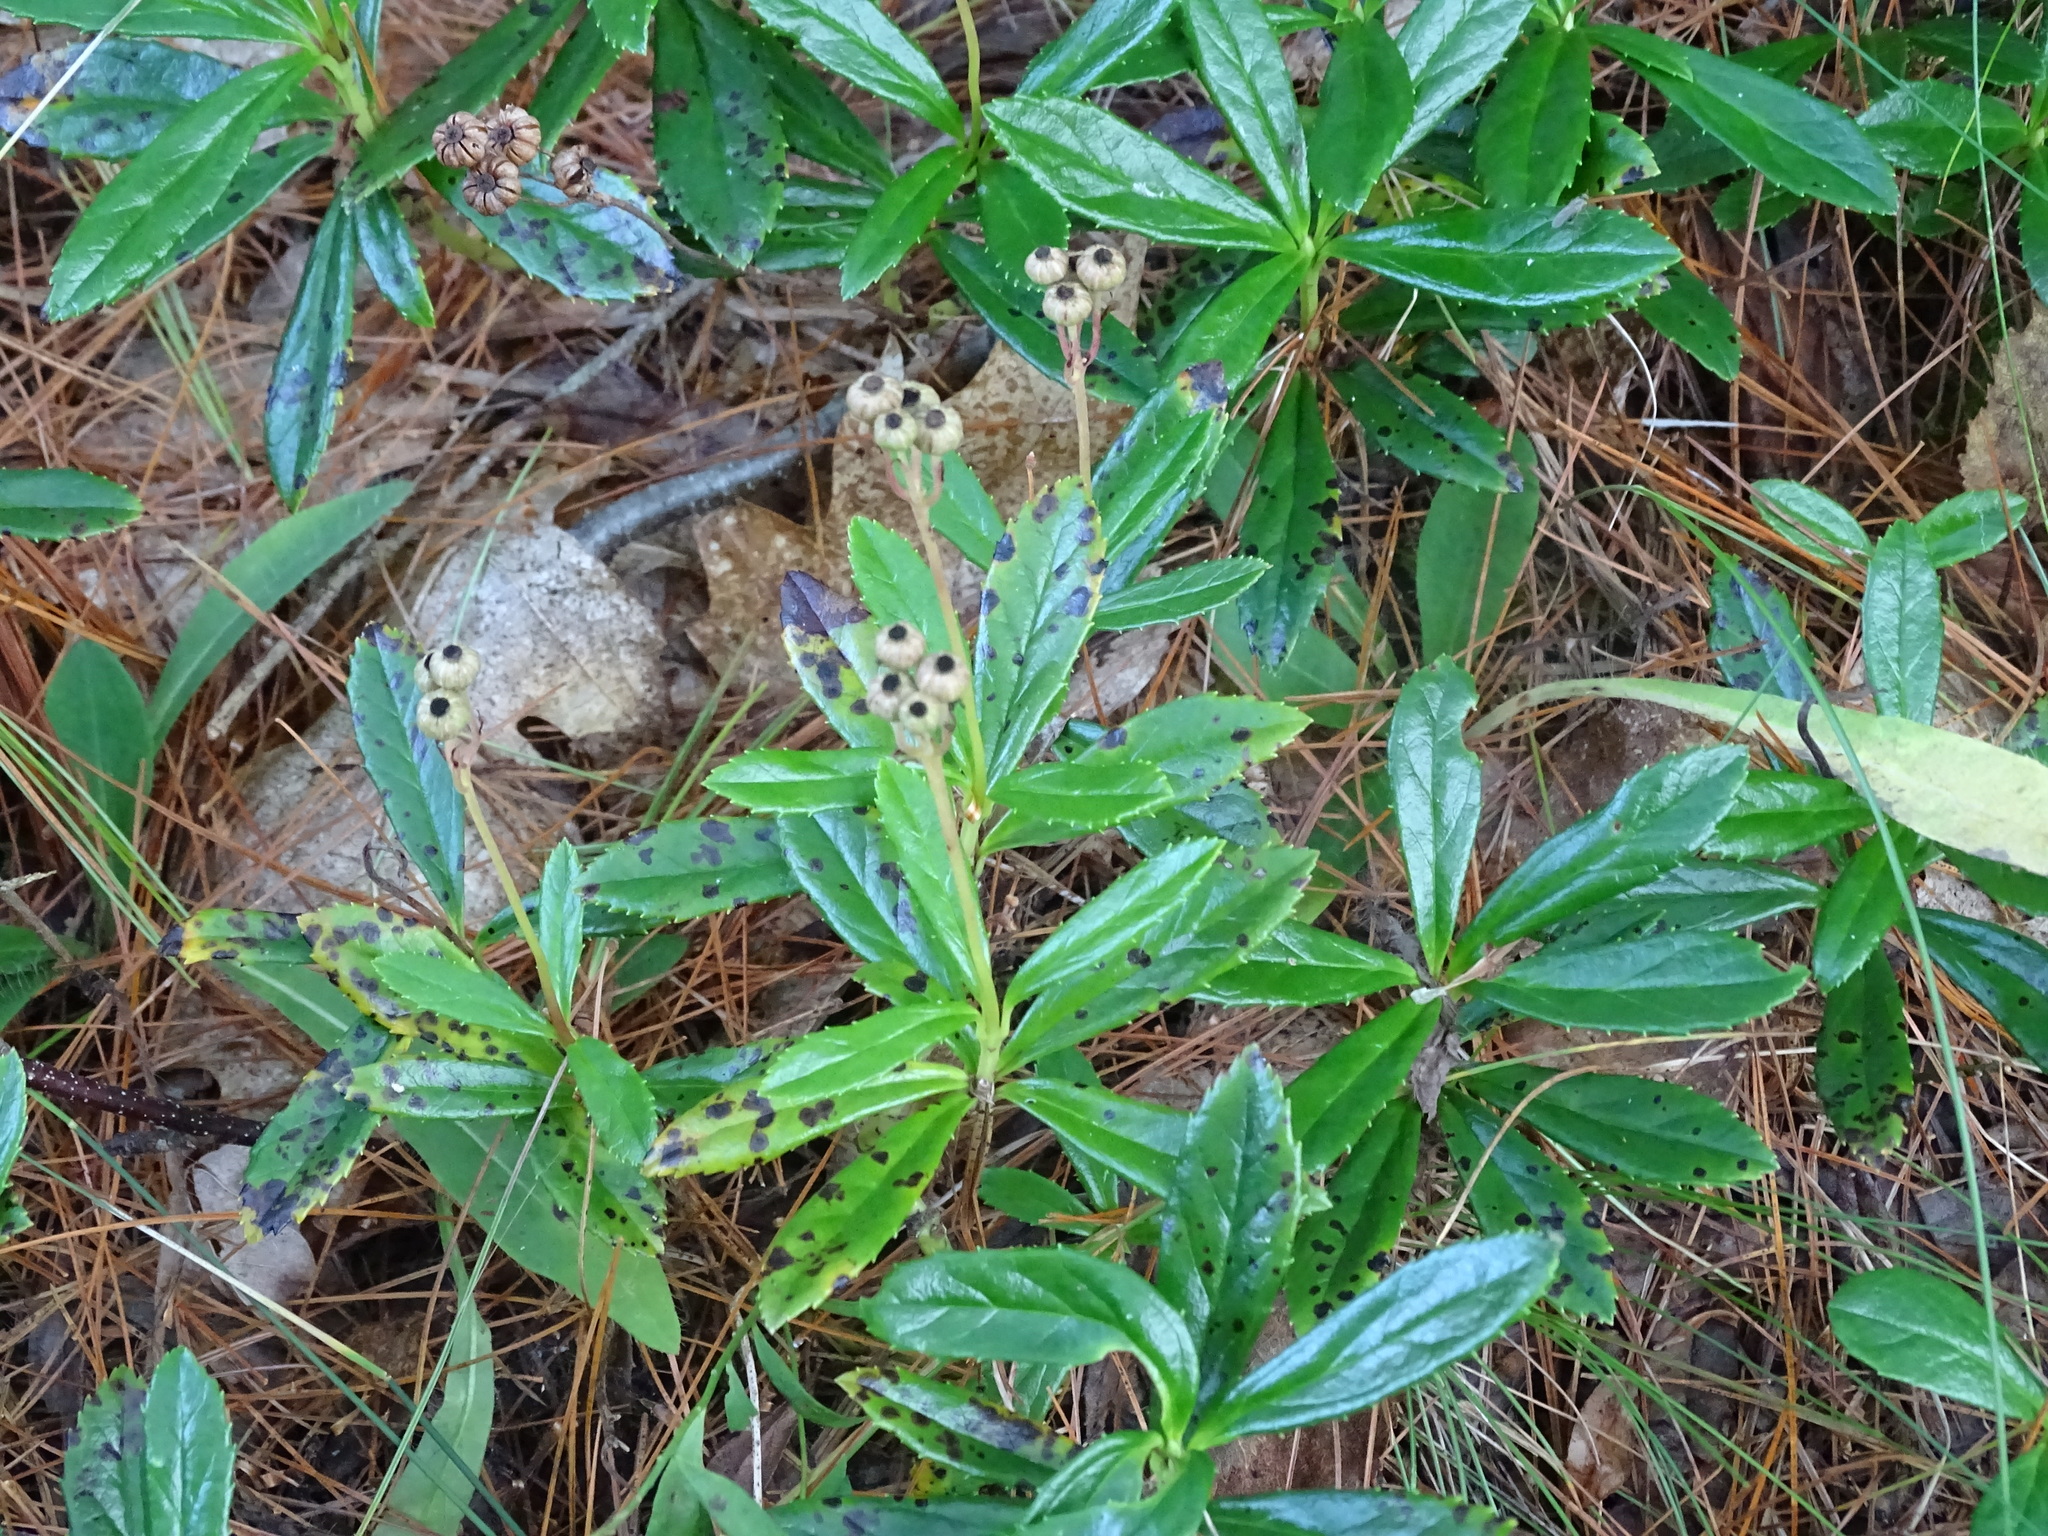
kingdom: Plantae
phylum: Tracheophyta
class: Magnoliopsida
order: Ericales
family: Ericaceae
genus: Chimaphila
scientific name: Chimaphila umbellata
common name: Pipsissewa
